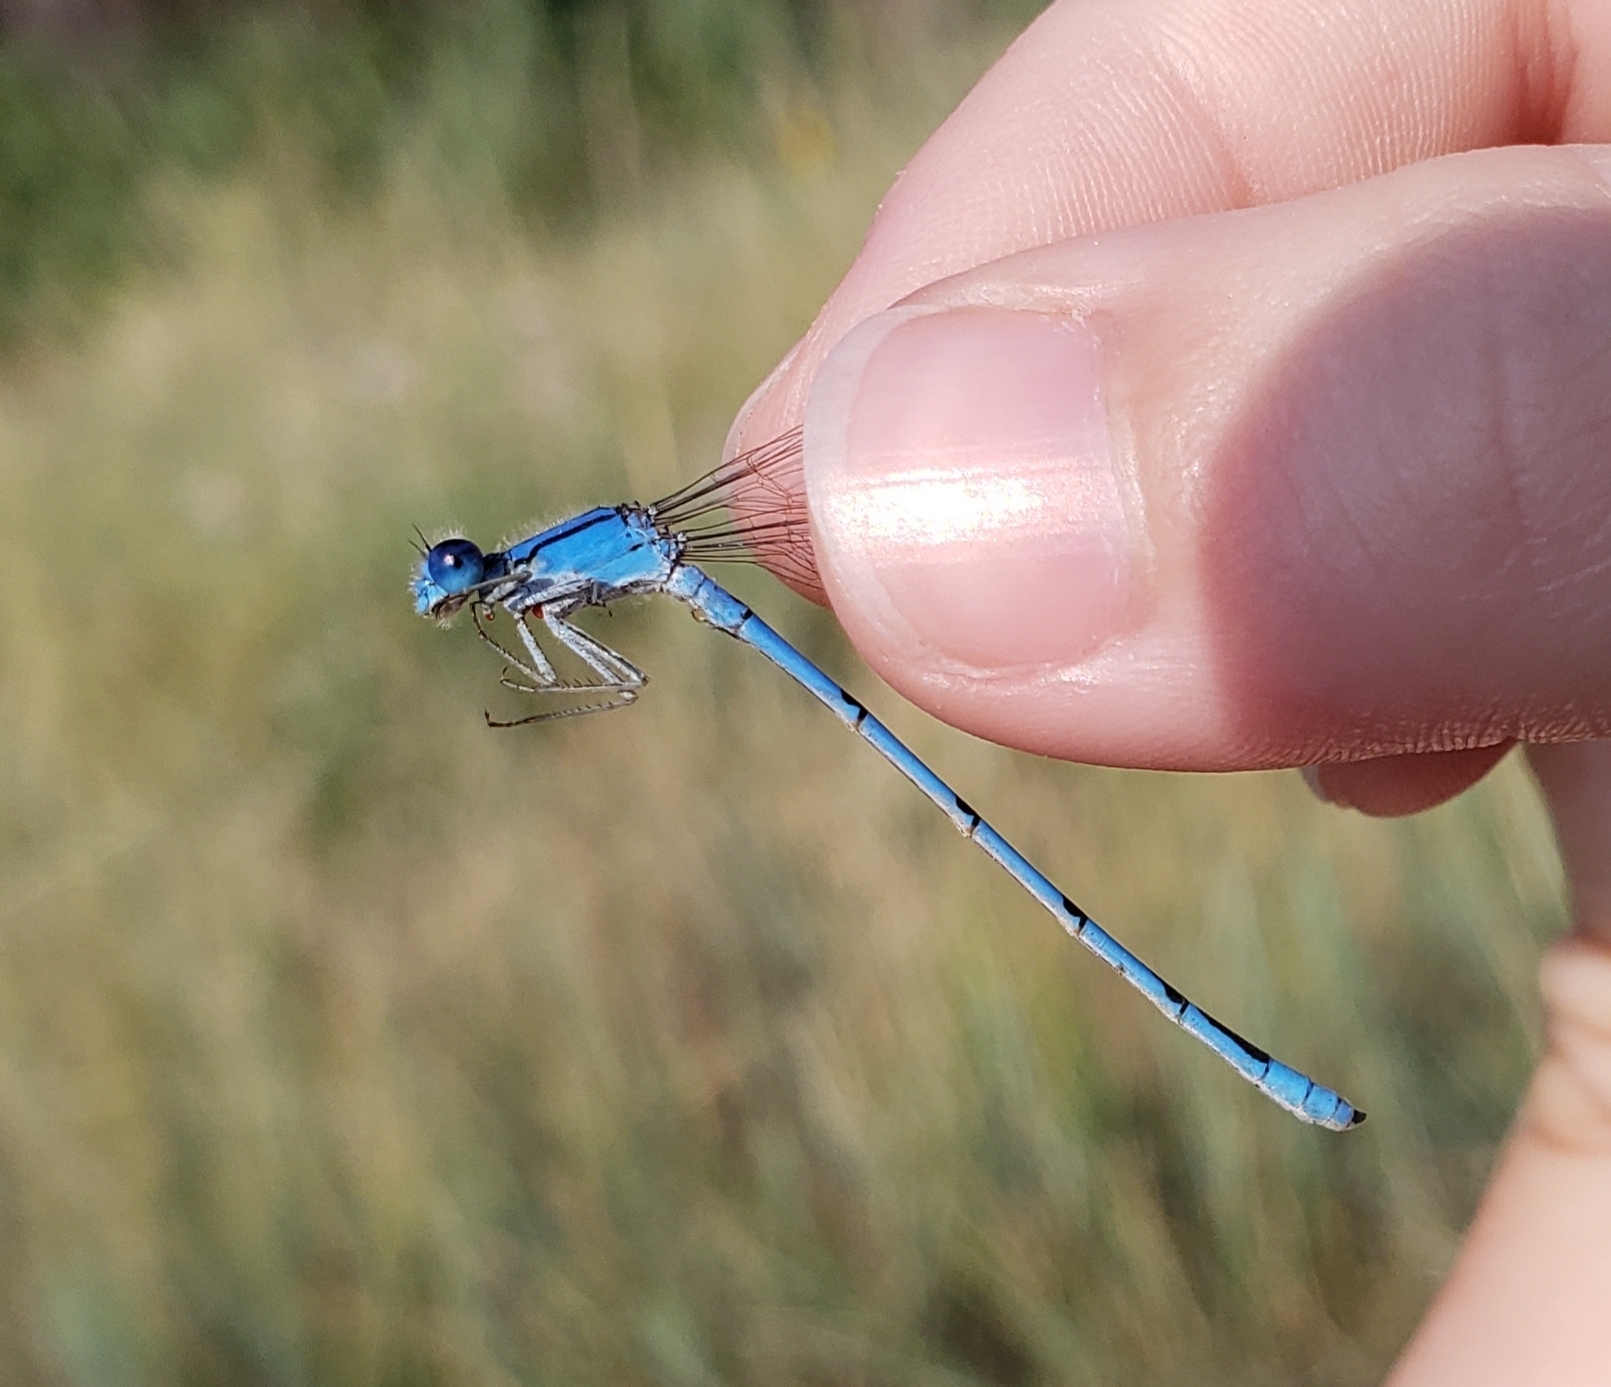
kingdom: Animalia
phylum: Arthropoda
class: Insecta
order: Odonata
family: Coenagrionidae
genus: Enallagma
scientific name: Enallagma civile
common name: Damselfly
